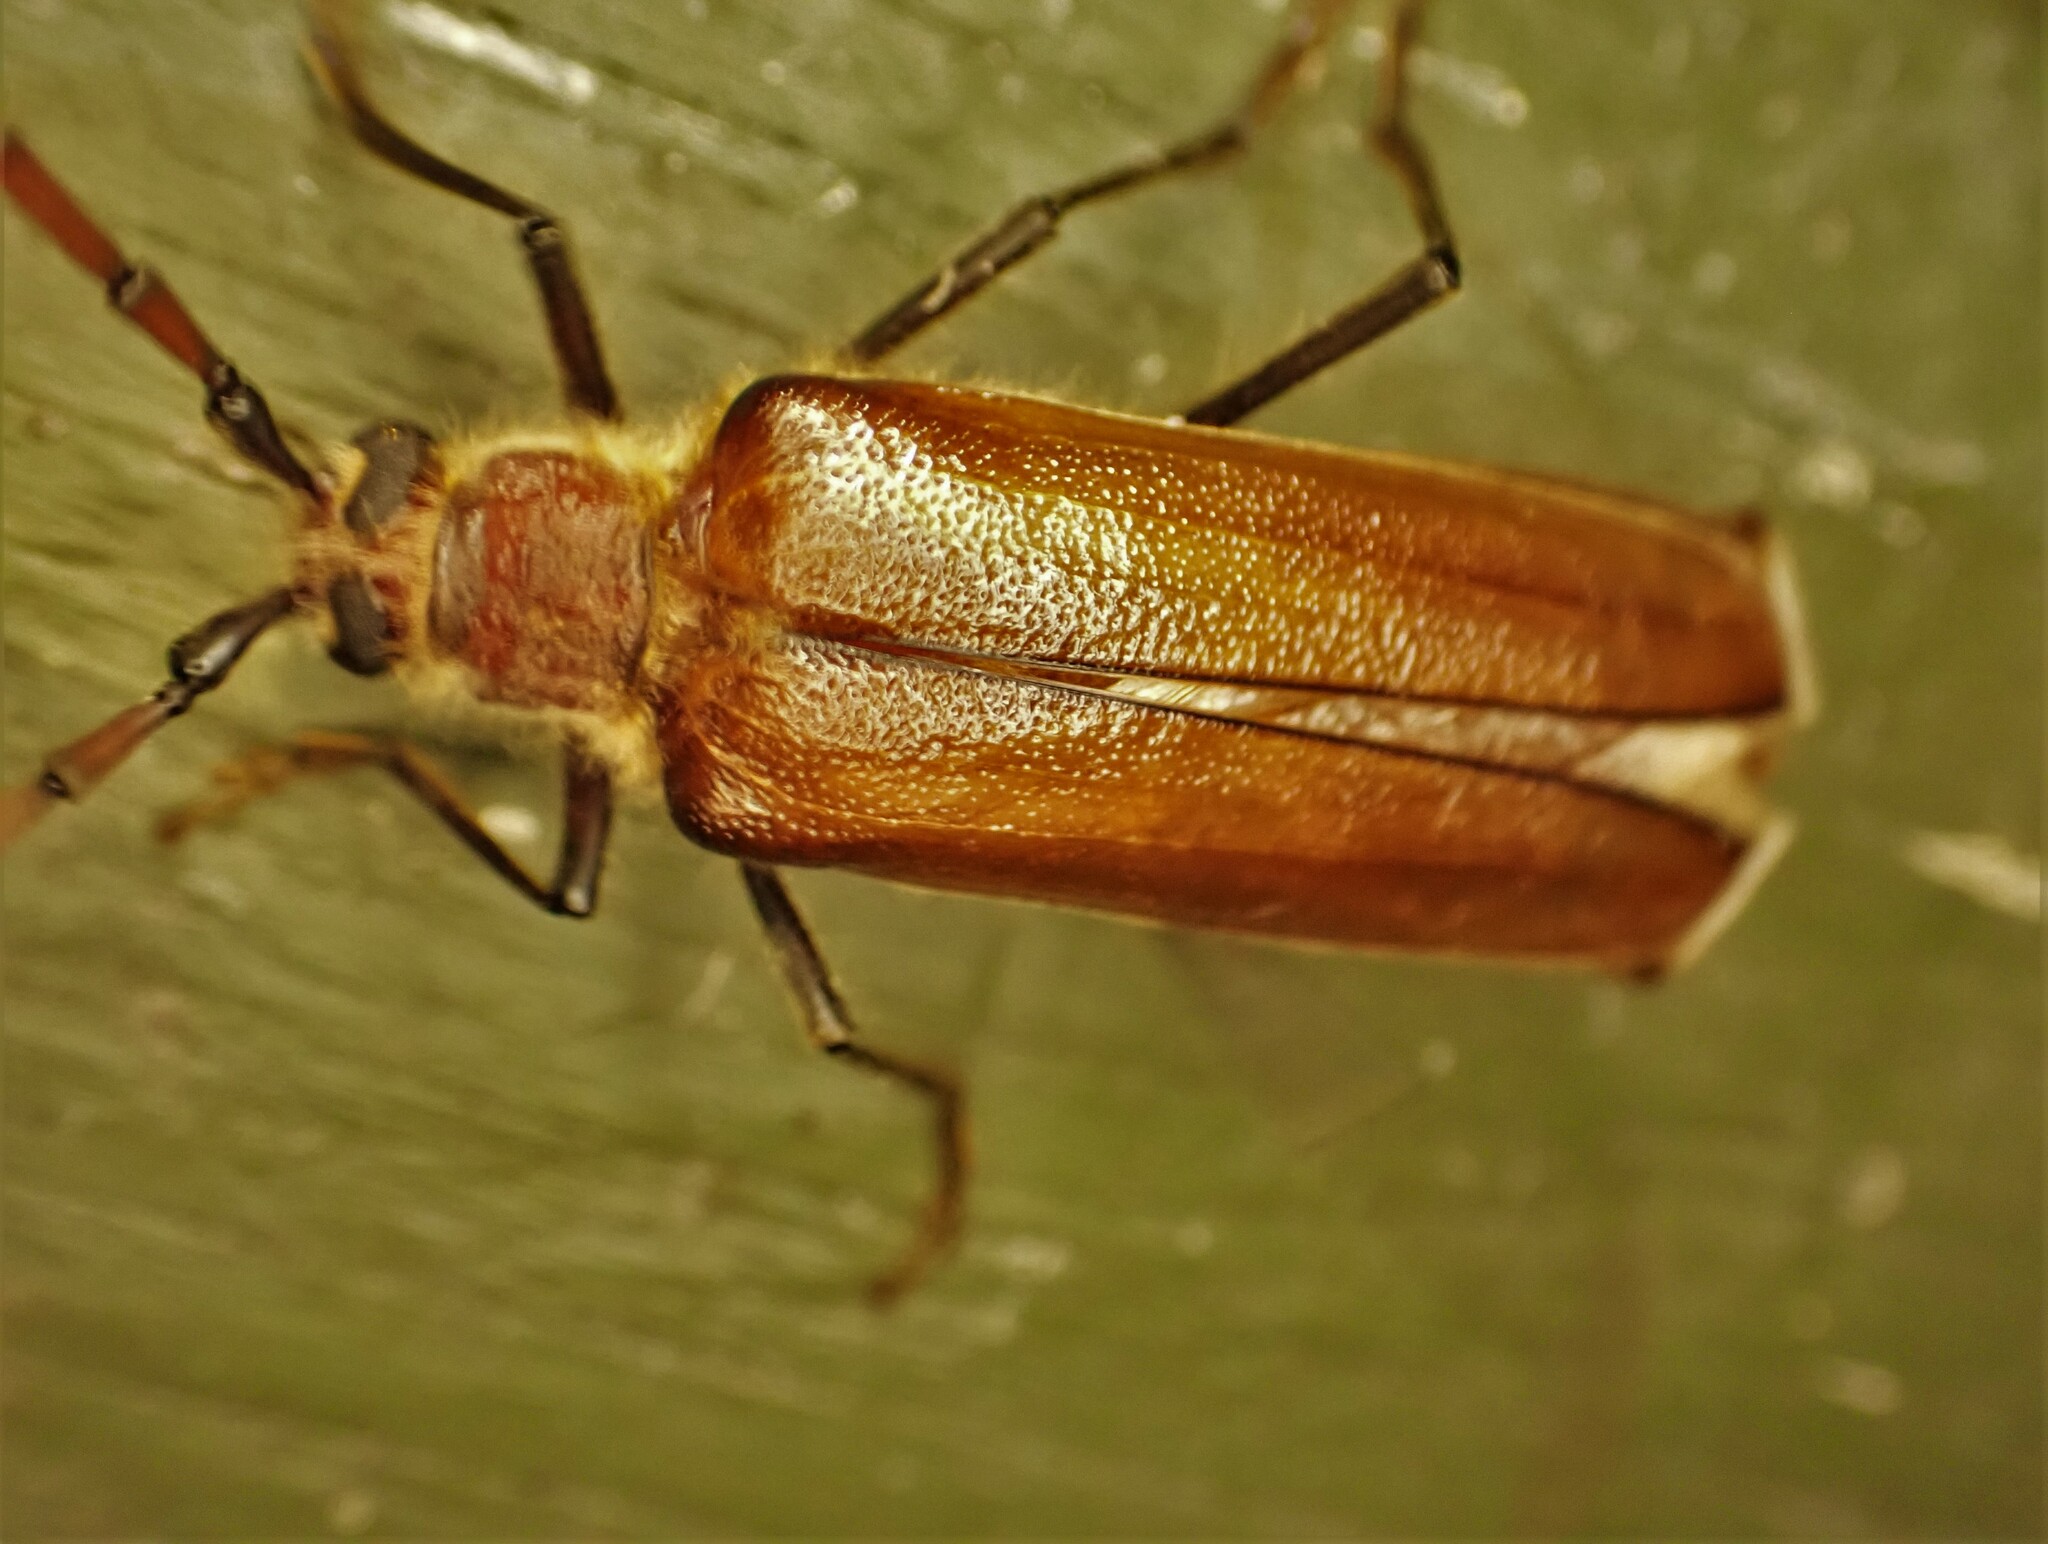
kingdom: Animalia
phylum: Arthropoda
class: Insecta
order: Coleoptera
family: Cerambycidae
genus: Ochrocydus
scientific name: Ochrocydus huttoni
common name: Kanuka longhorn
